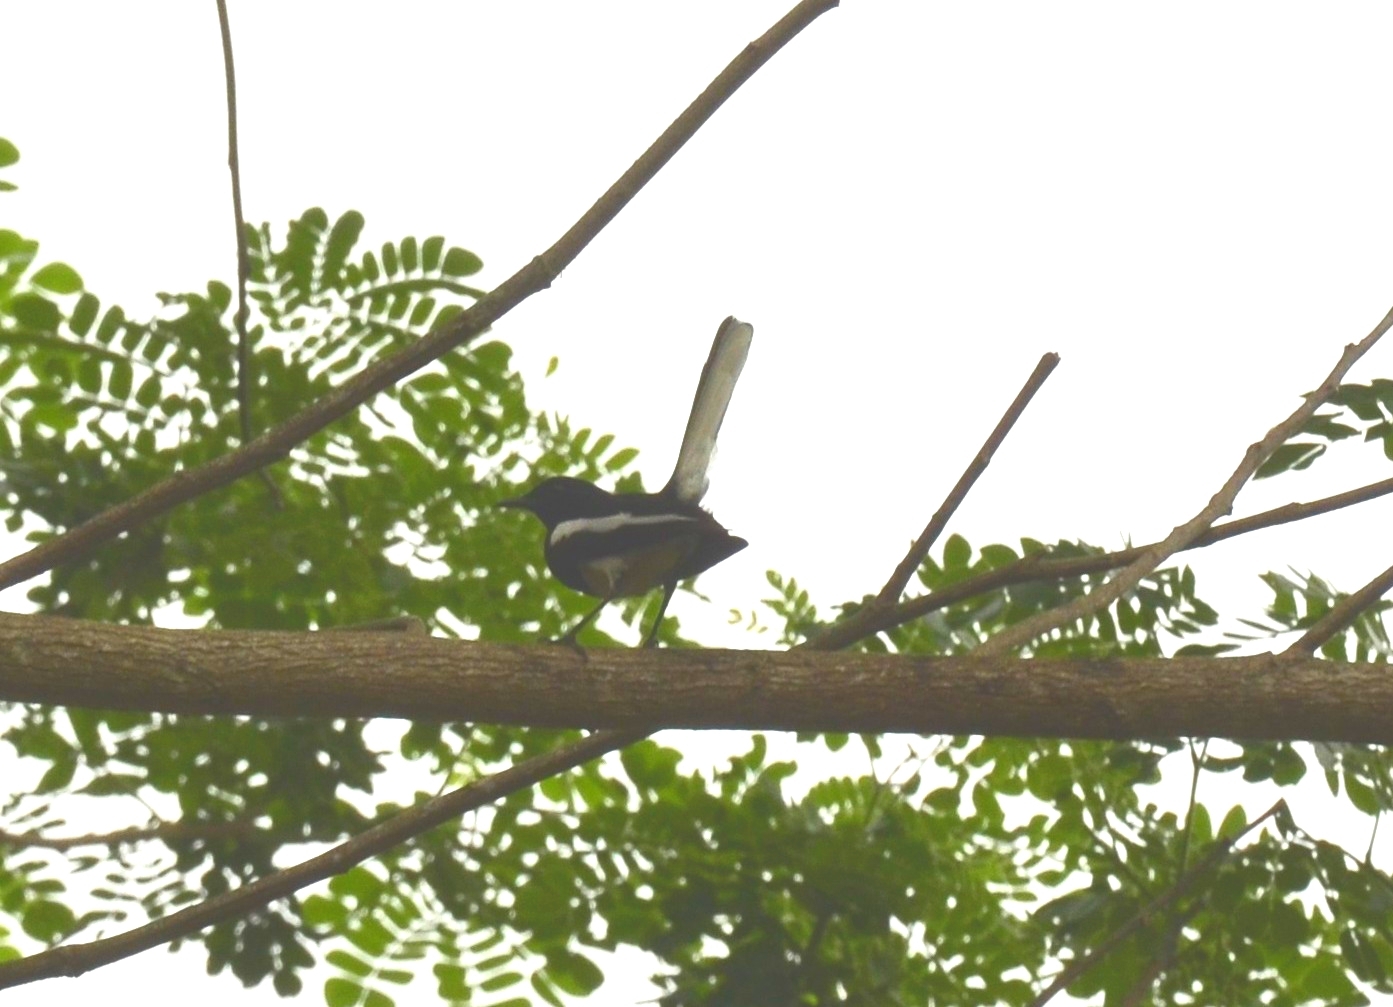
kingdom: Animalia
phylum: Chordata
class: Aves
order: Passeriformes
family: Muscicapidae
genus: Copsychus
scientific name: Copsychus saularis
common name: Oriental magpie-robin
